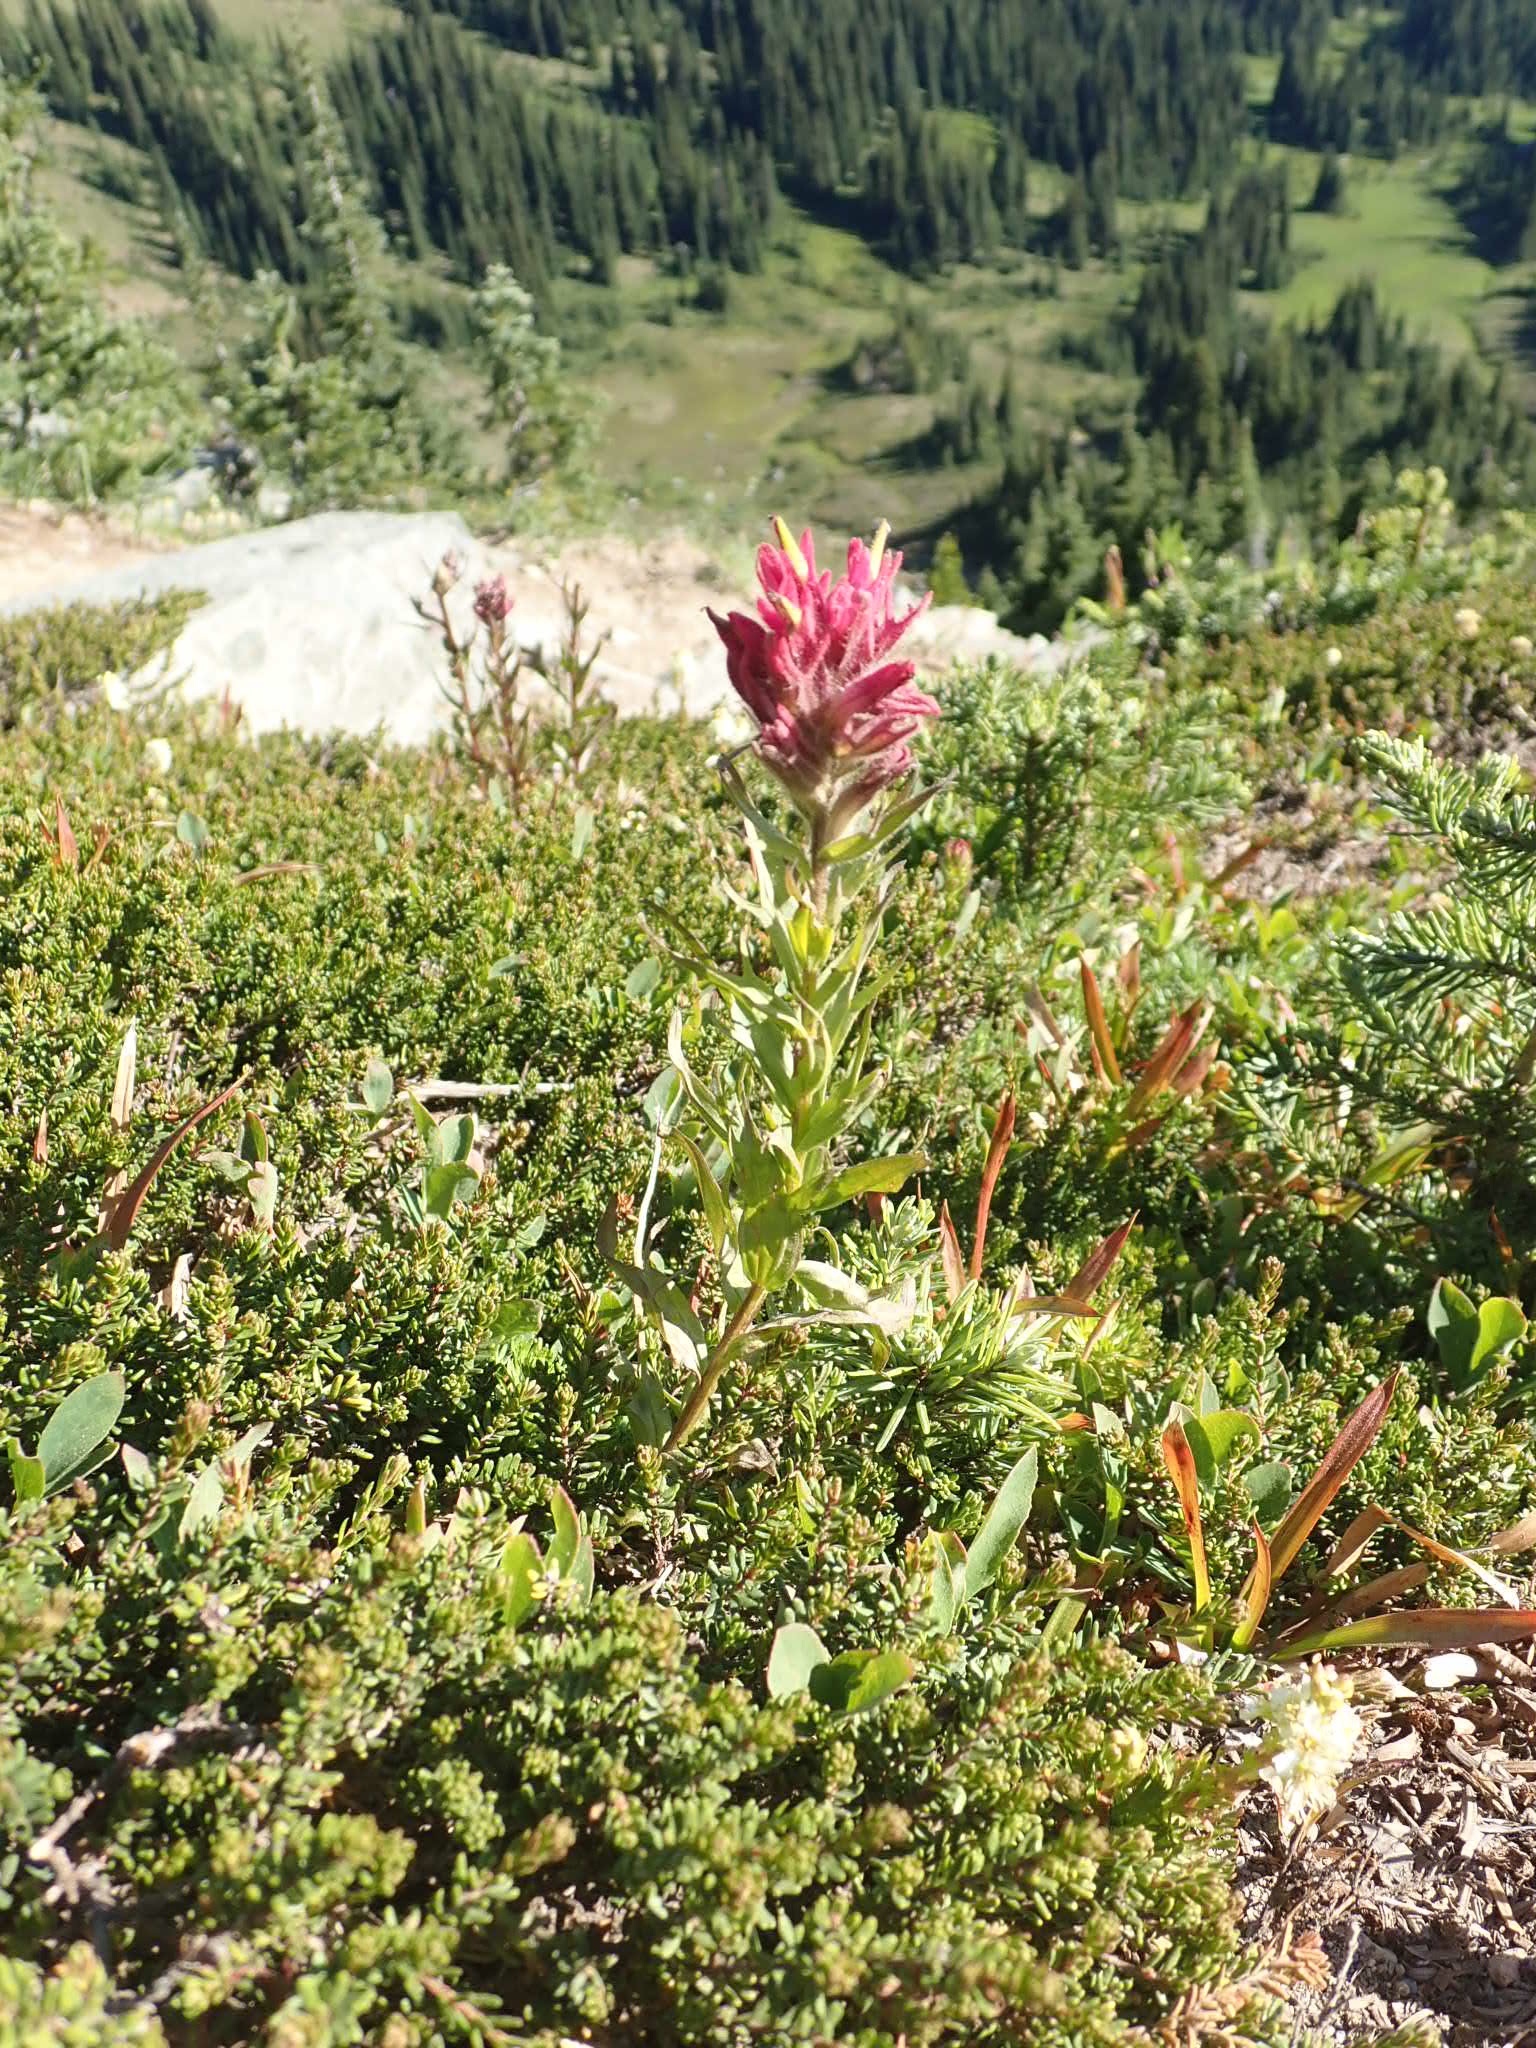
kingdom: Plantae
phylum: Tracheophyta
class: Magnoliopsida
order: Lamiales
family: Orobanchaceae
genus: Castilleja
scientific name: Castilleja parviflora
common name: Mountain paintbrush
